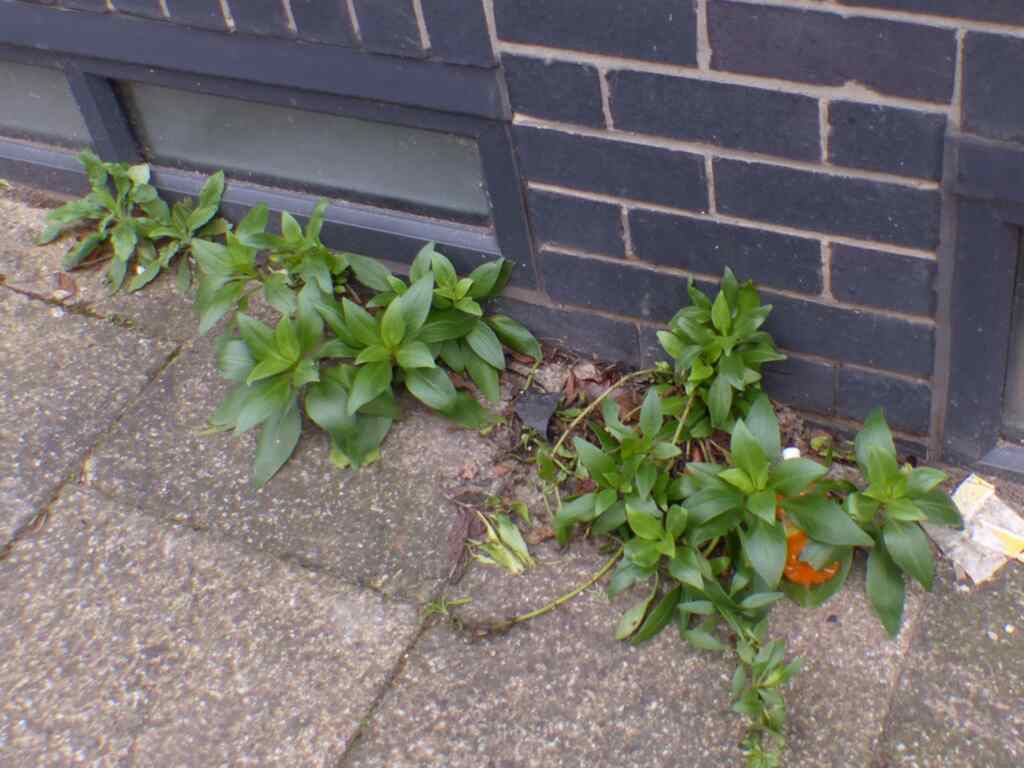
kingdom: Plantae
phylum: Tracheophyta
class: Magnoliopsida
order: Dipsacales
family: Caprifoliaceae
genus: Centranthus
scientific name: Centranthus ruber
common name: Red valerian
